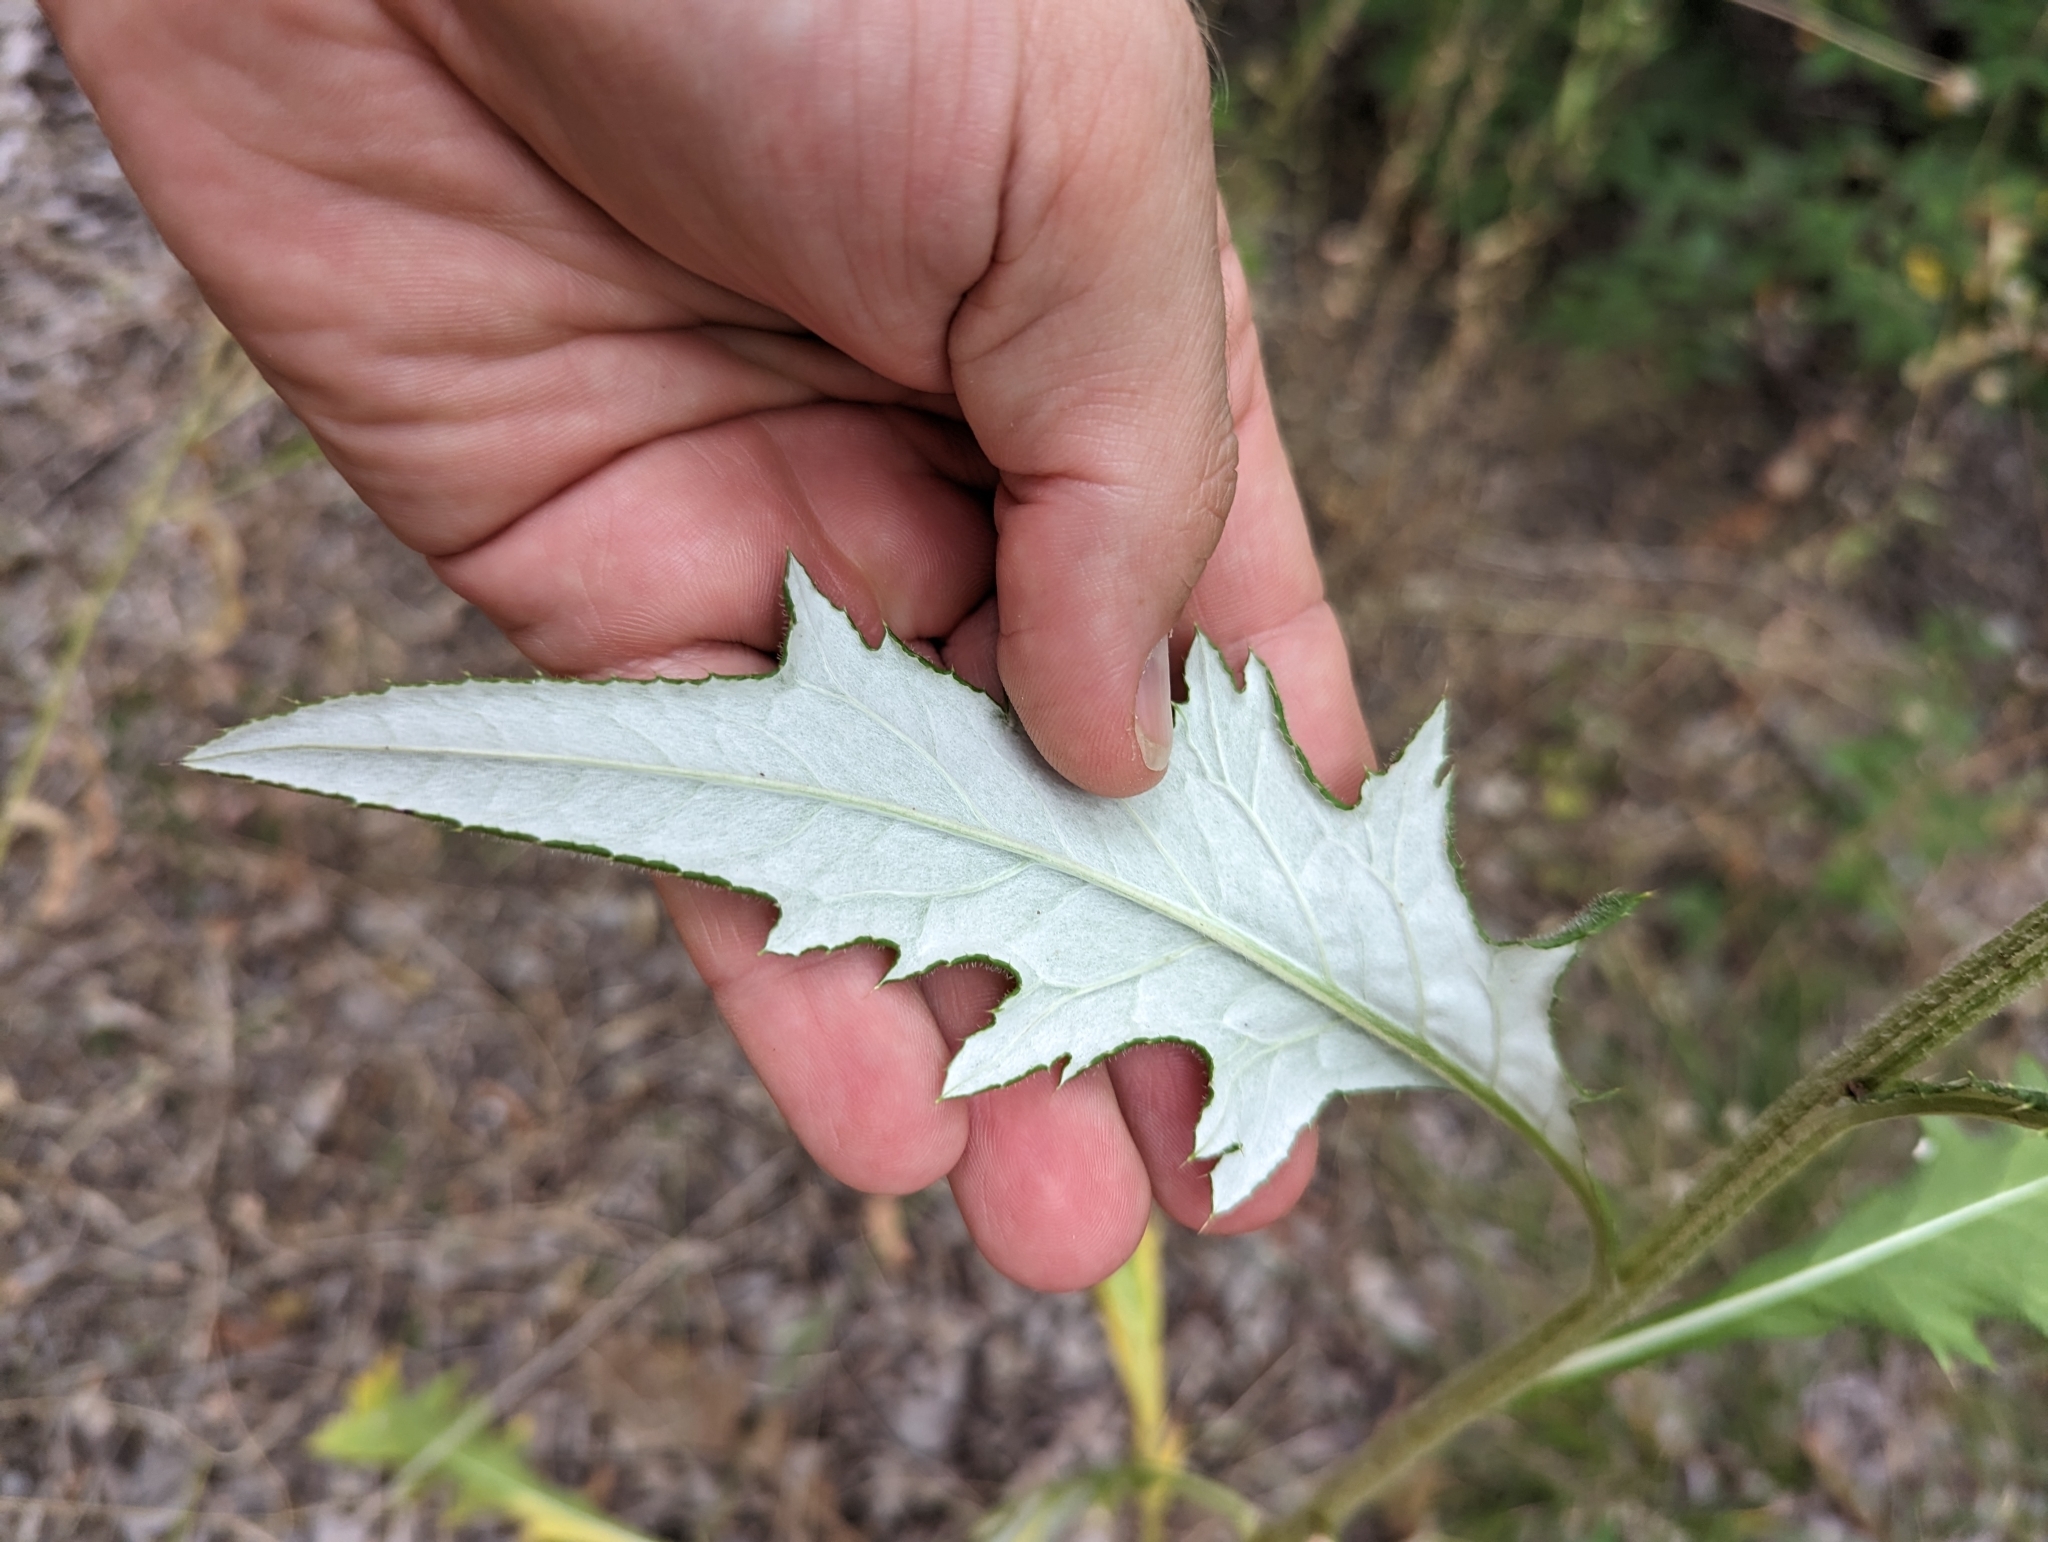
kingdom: Plantae
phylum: Tracheophyta
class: Magnoliopsida
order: Asterales
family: Asteraceae
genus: Cirsium
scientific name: Cirsium engelmannii
